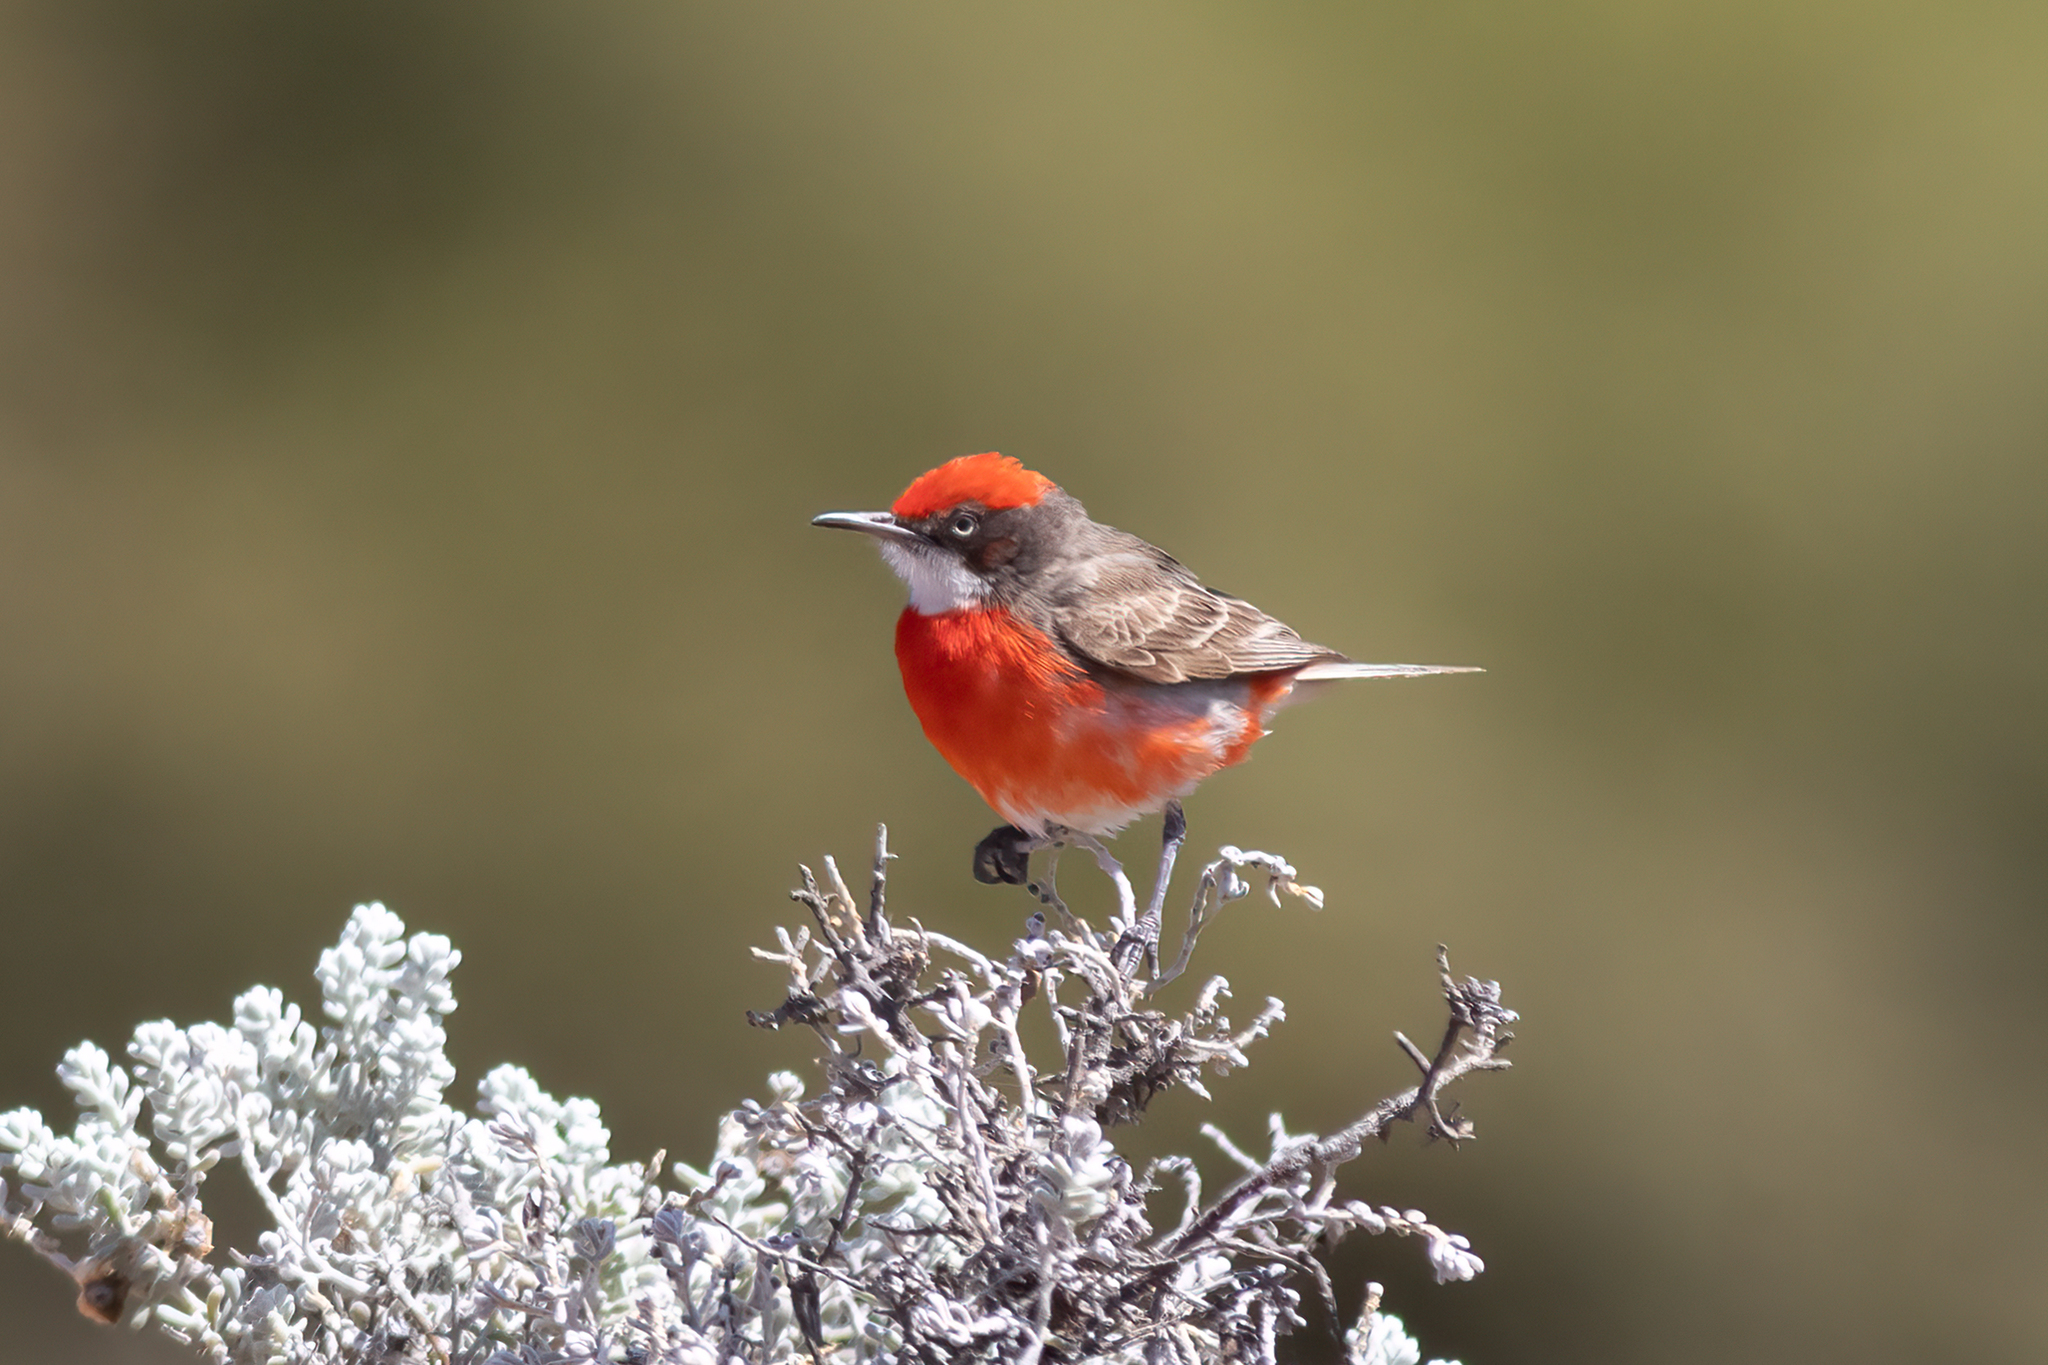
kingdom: Animalia
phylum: Chordata
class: Aves
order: Passeriformes
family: Meliphagidae
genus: Epthianura
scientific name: Epthianura tricolor
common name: Crimson chat
